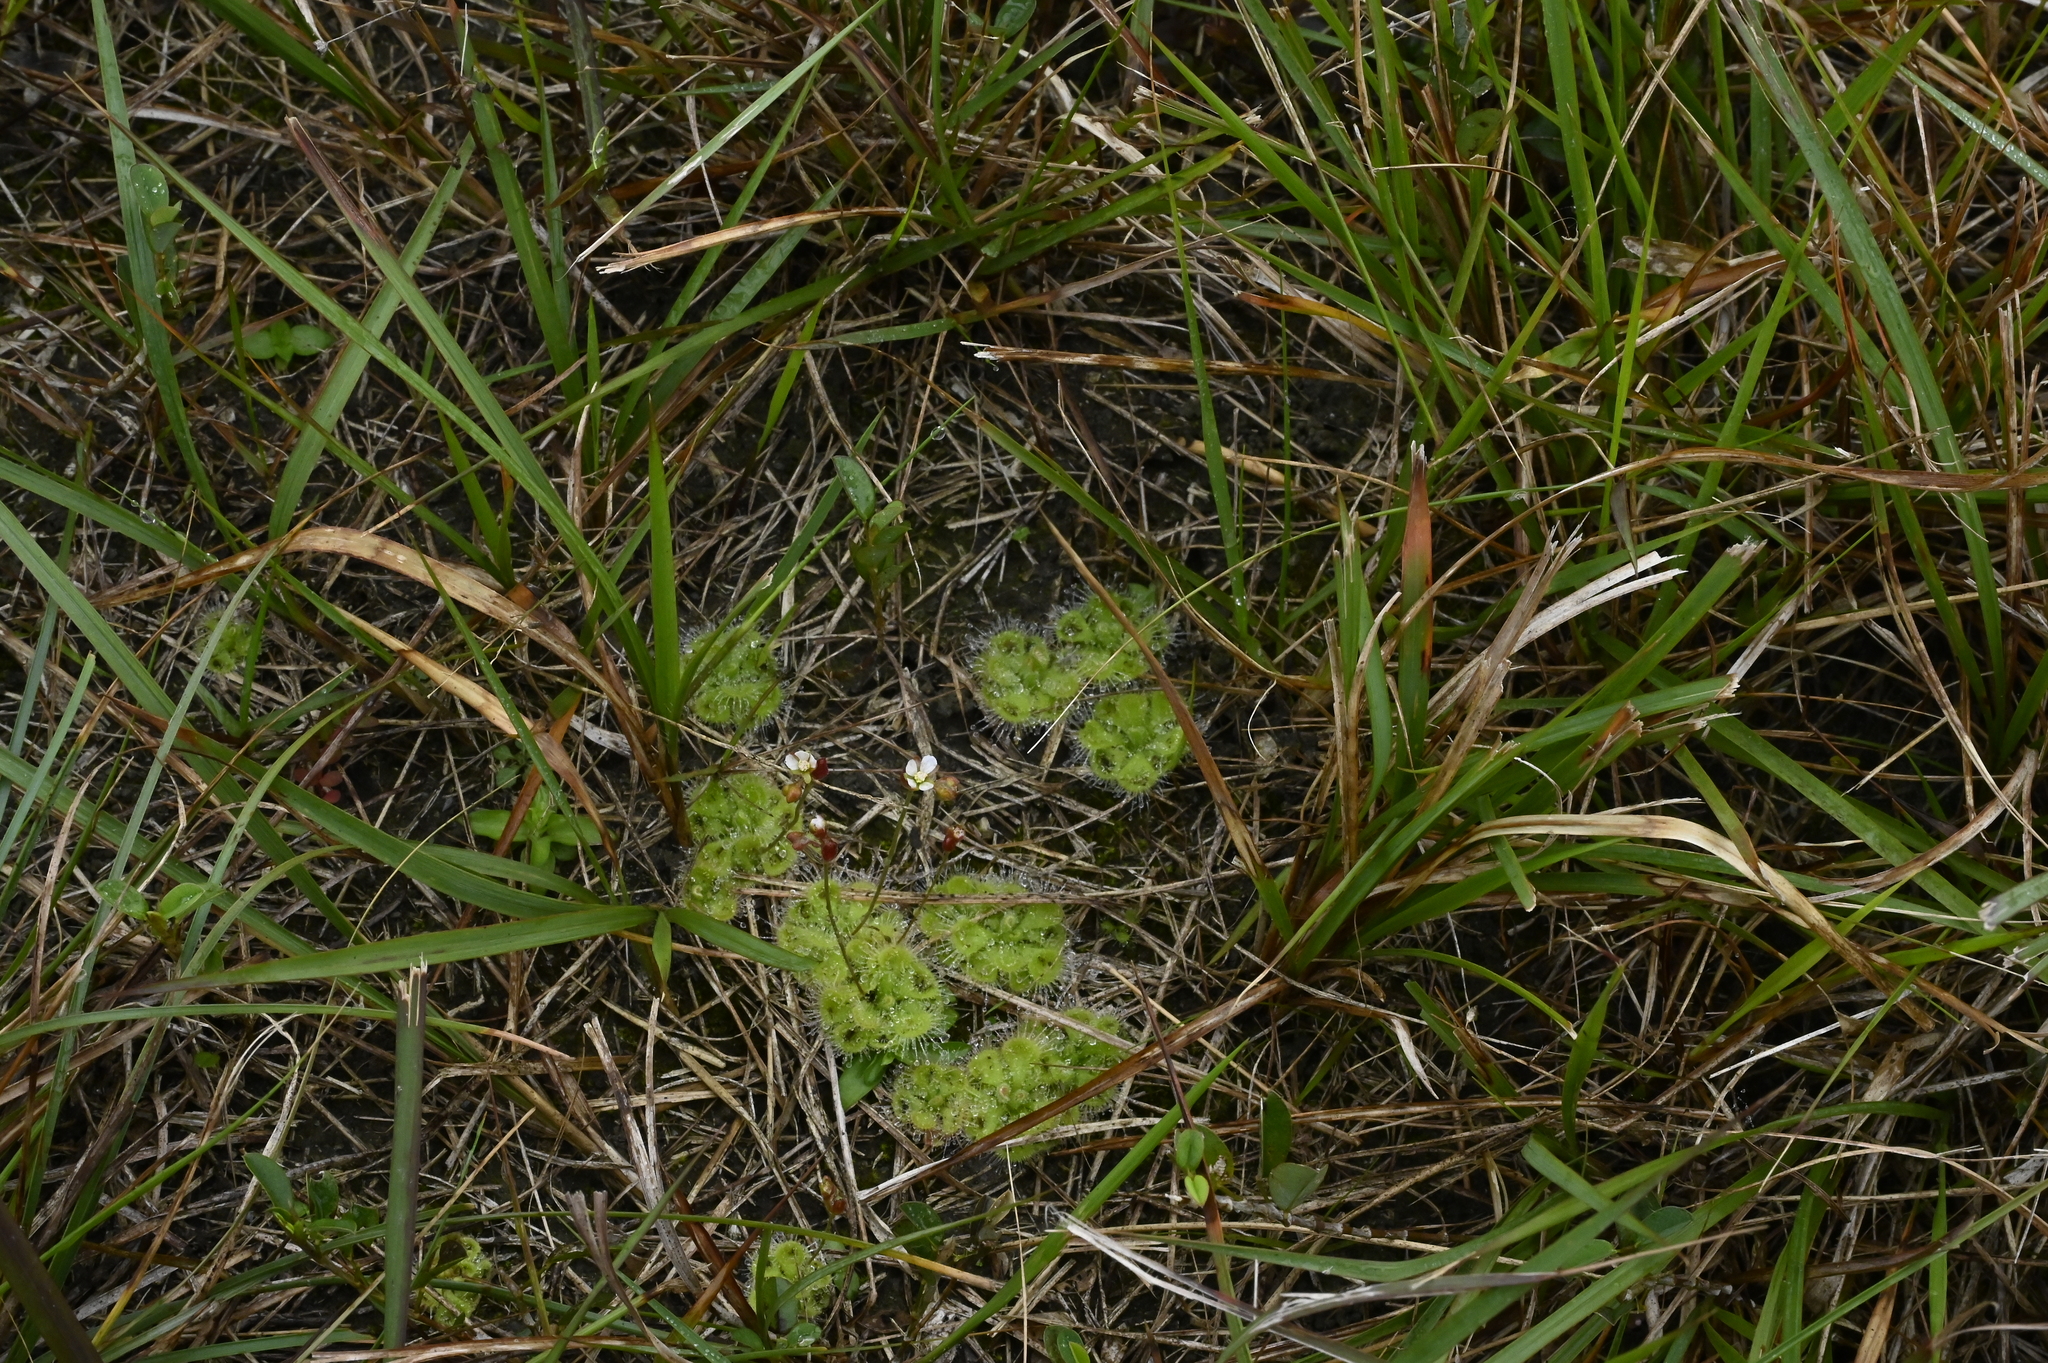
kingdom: Plantae
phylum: Tracheophyta
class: Magnoliopsida
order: Caryophyllales
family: Droseraceae
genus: Drosera
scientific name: Drosera spatulata
